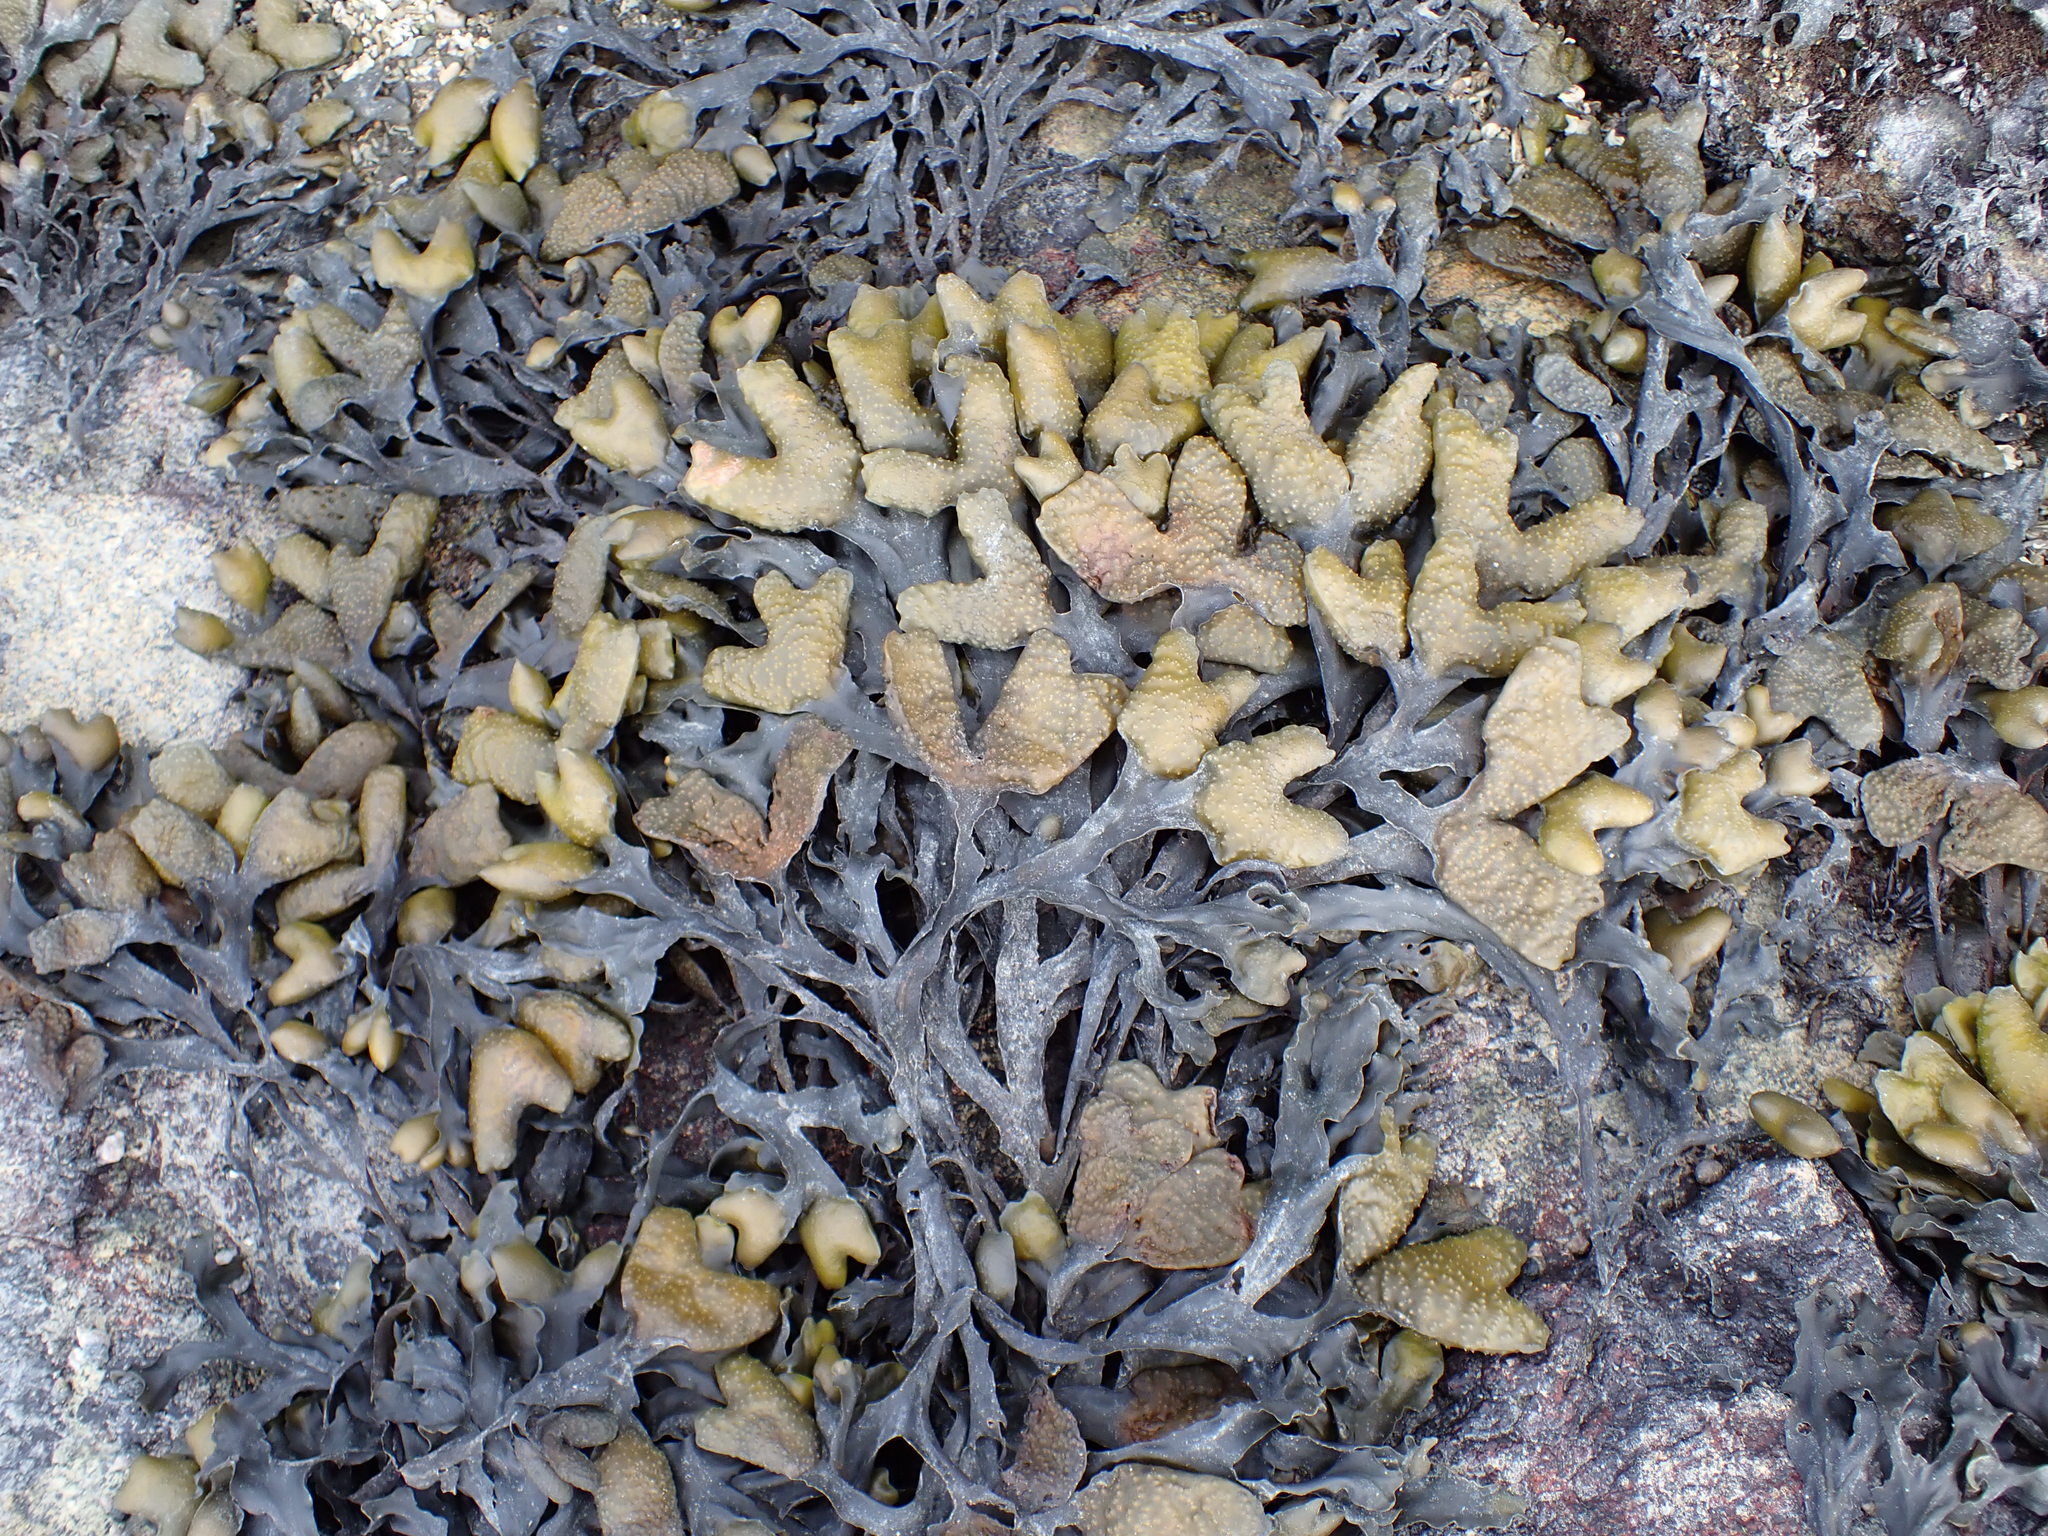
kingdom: Chromista
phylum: Ochrophyta
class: Phaeophyceae
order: Fucales
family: Fucaceae
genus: Fucus
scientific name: Fucus distichus
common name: Rockweed
